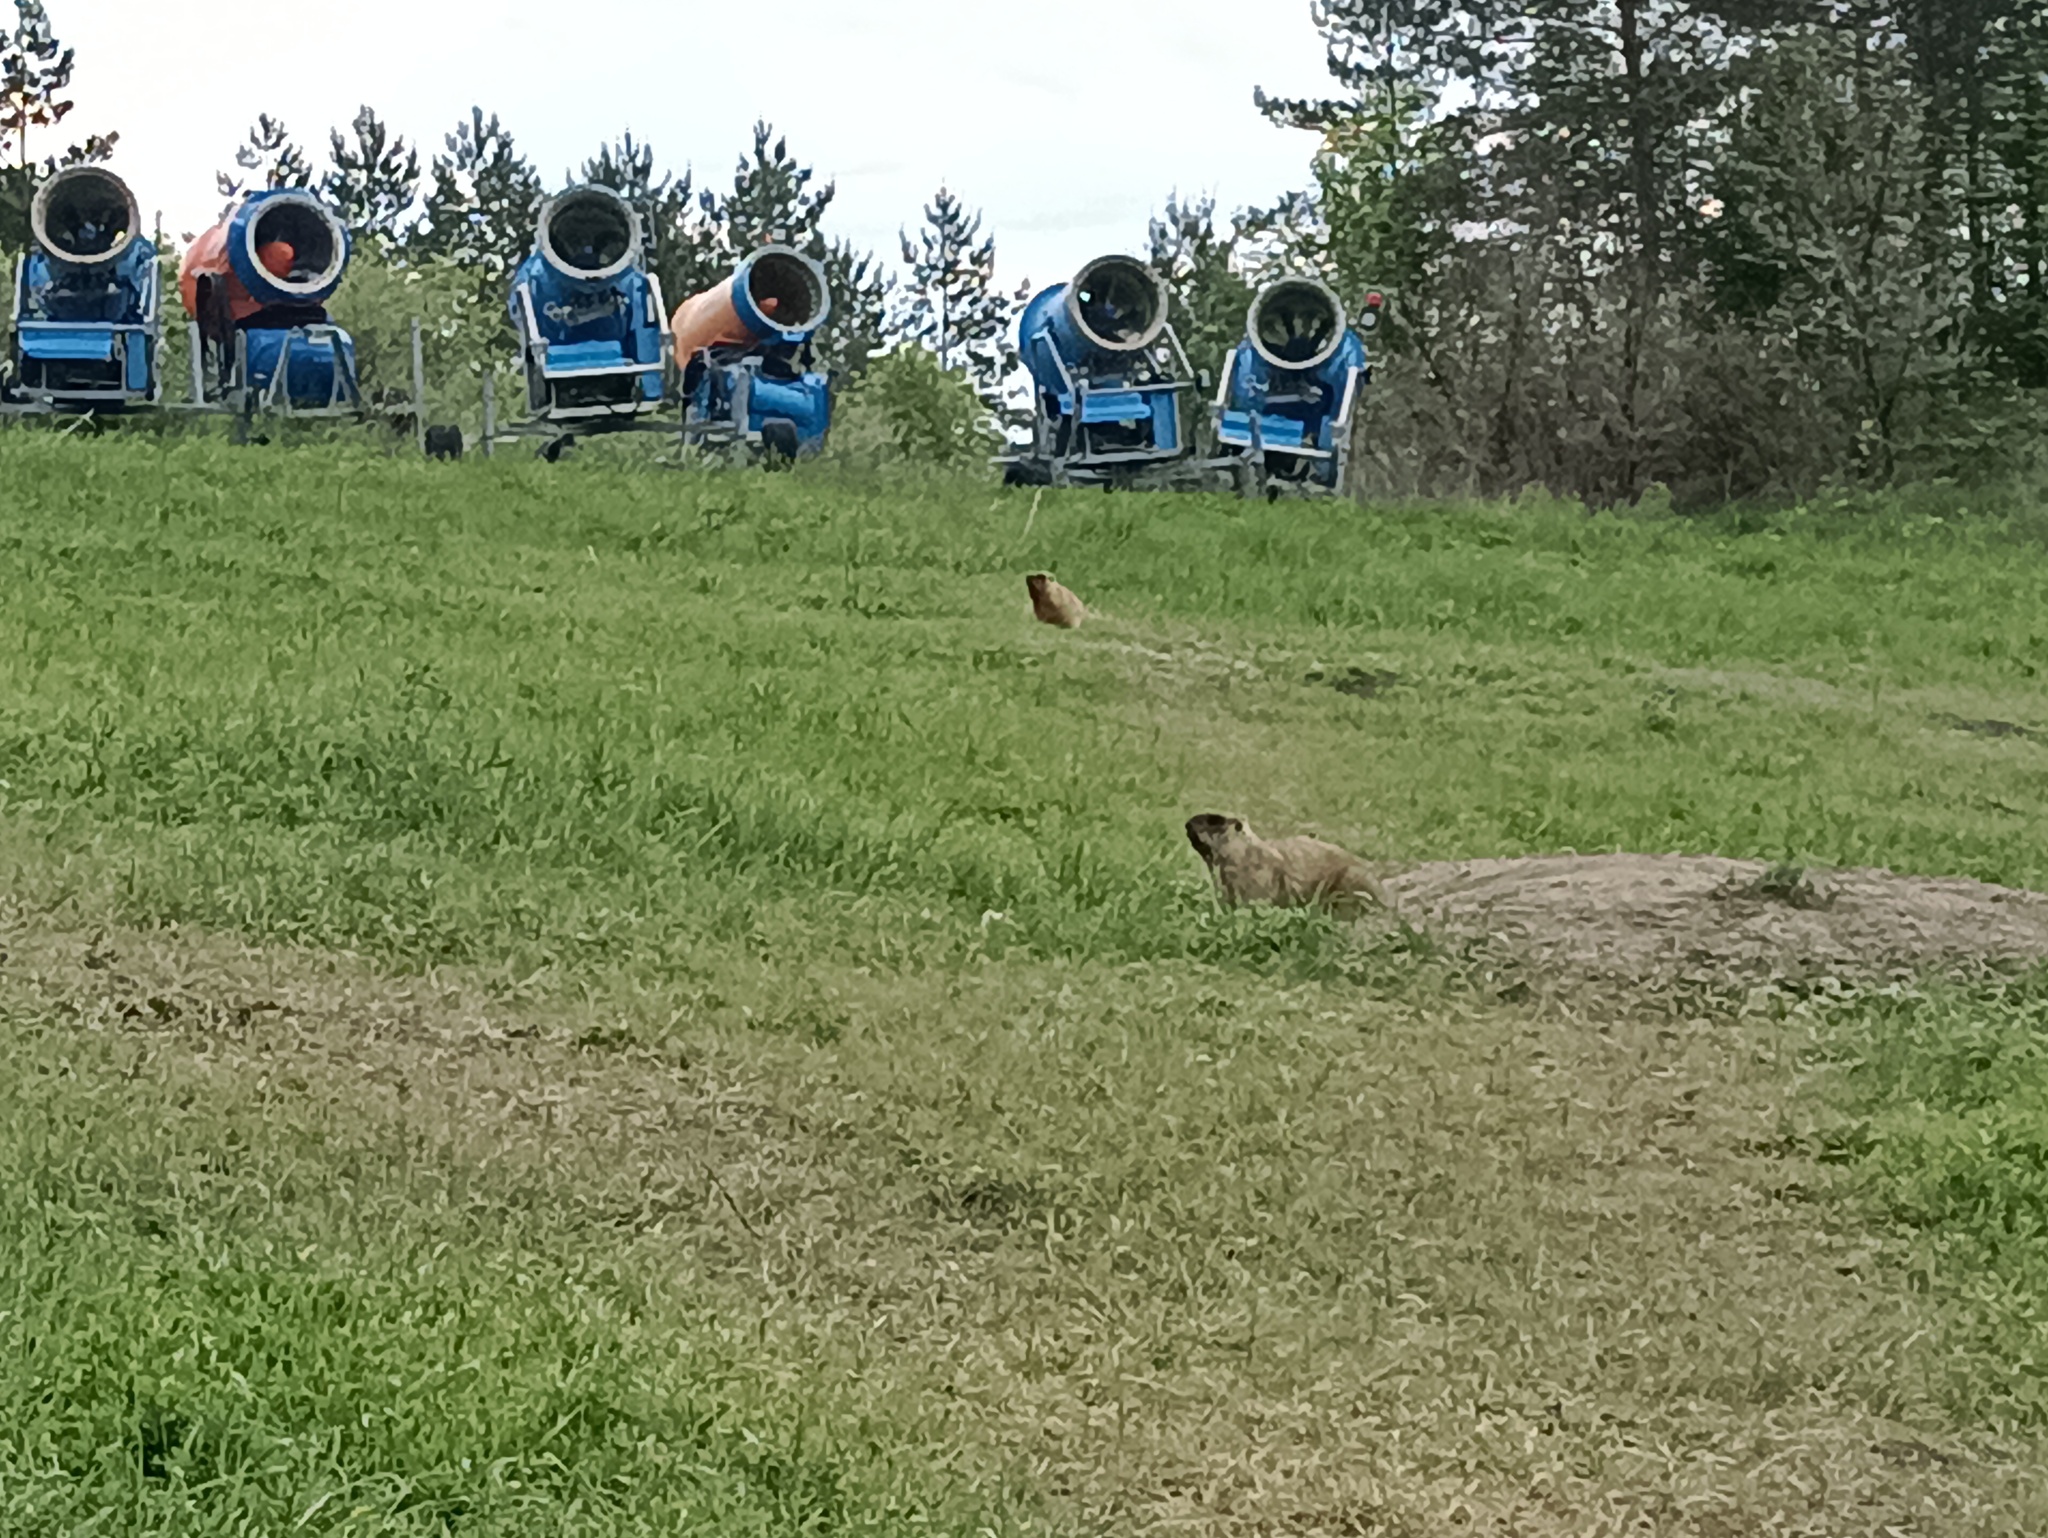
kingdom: Animalia
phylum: Chordata
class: Mammalia
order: Rodentia
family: Sciuridae
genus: Marmota
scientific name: Marmota bobak
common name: Bobak marmot
